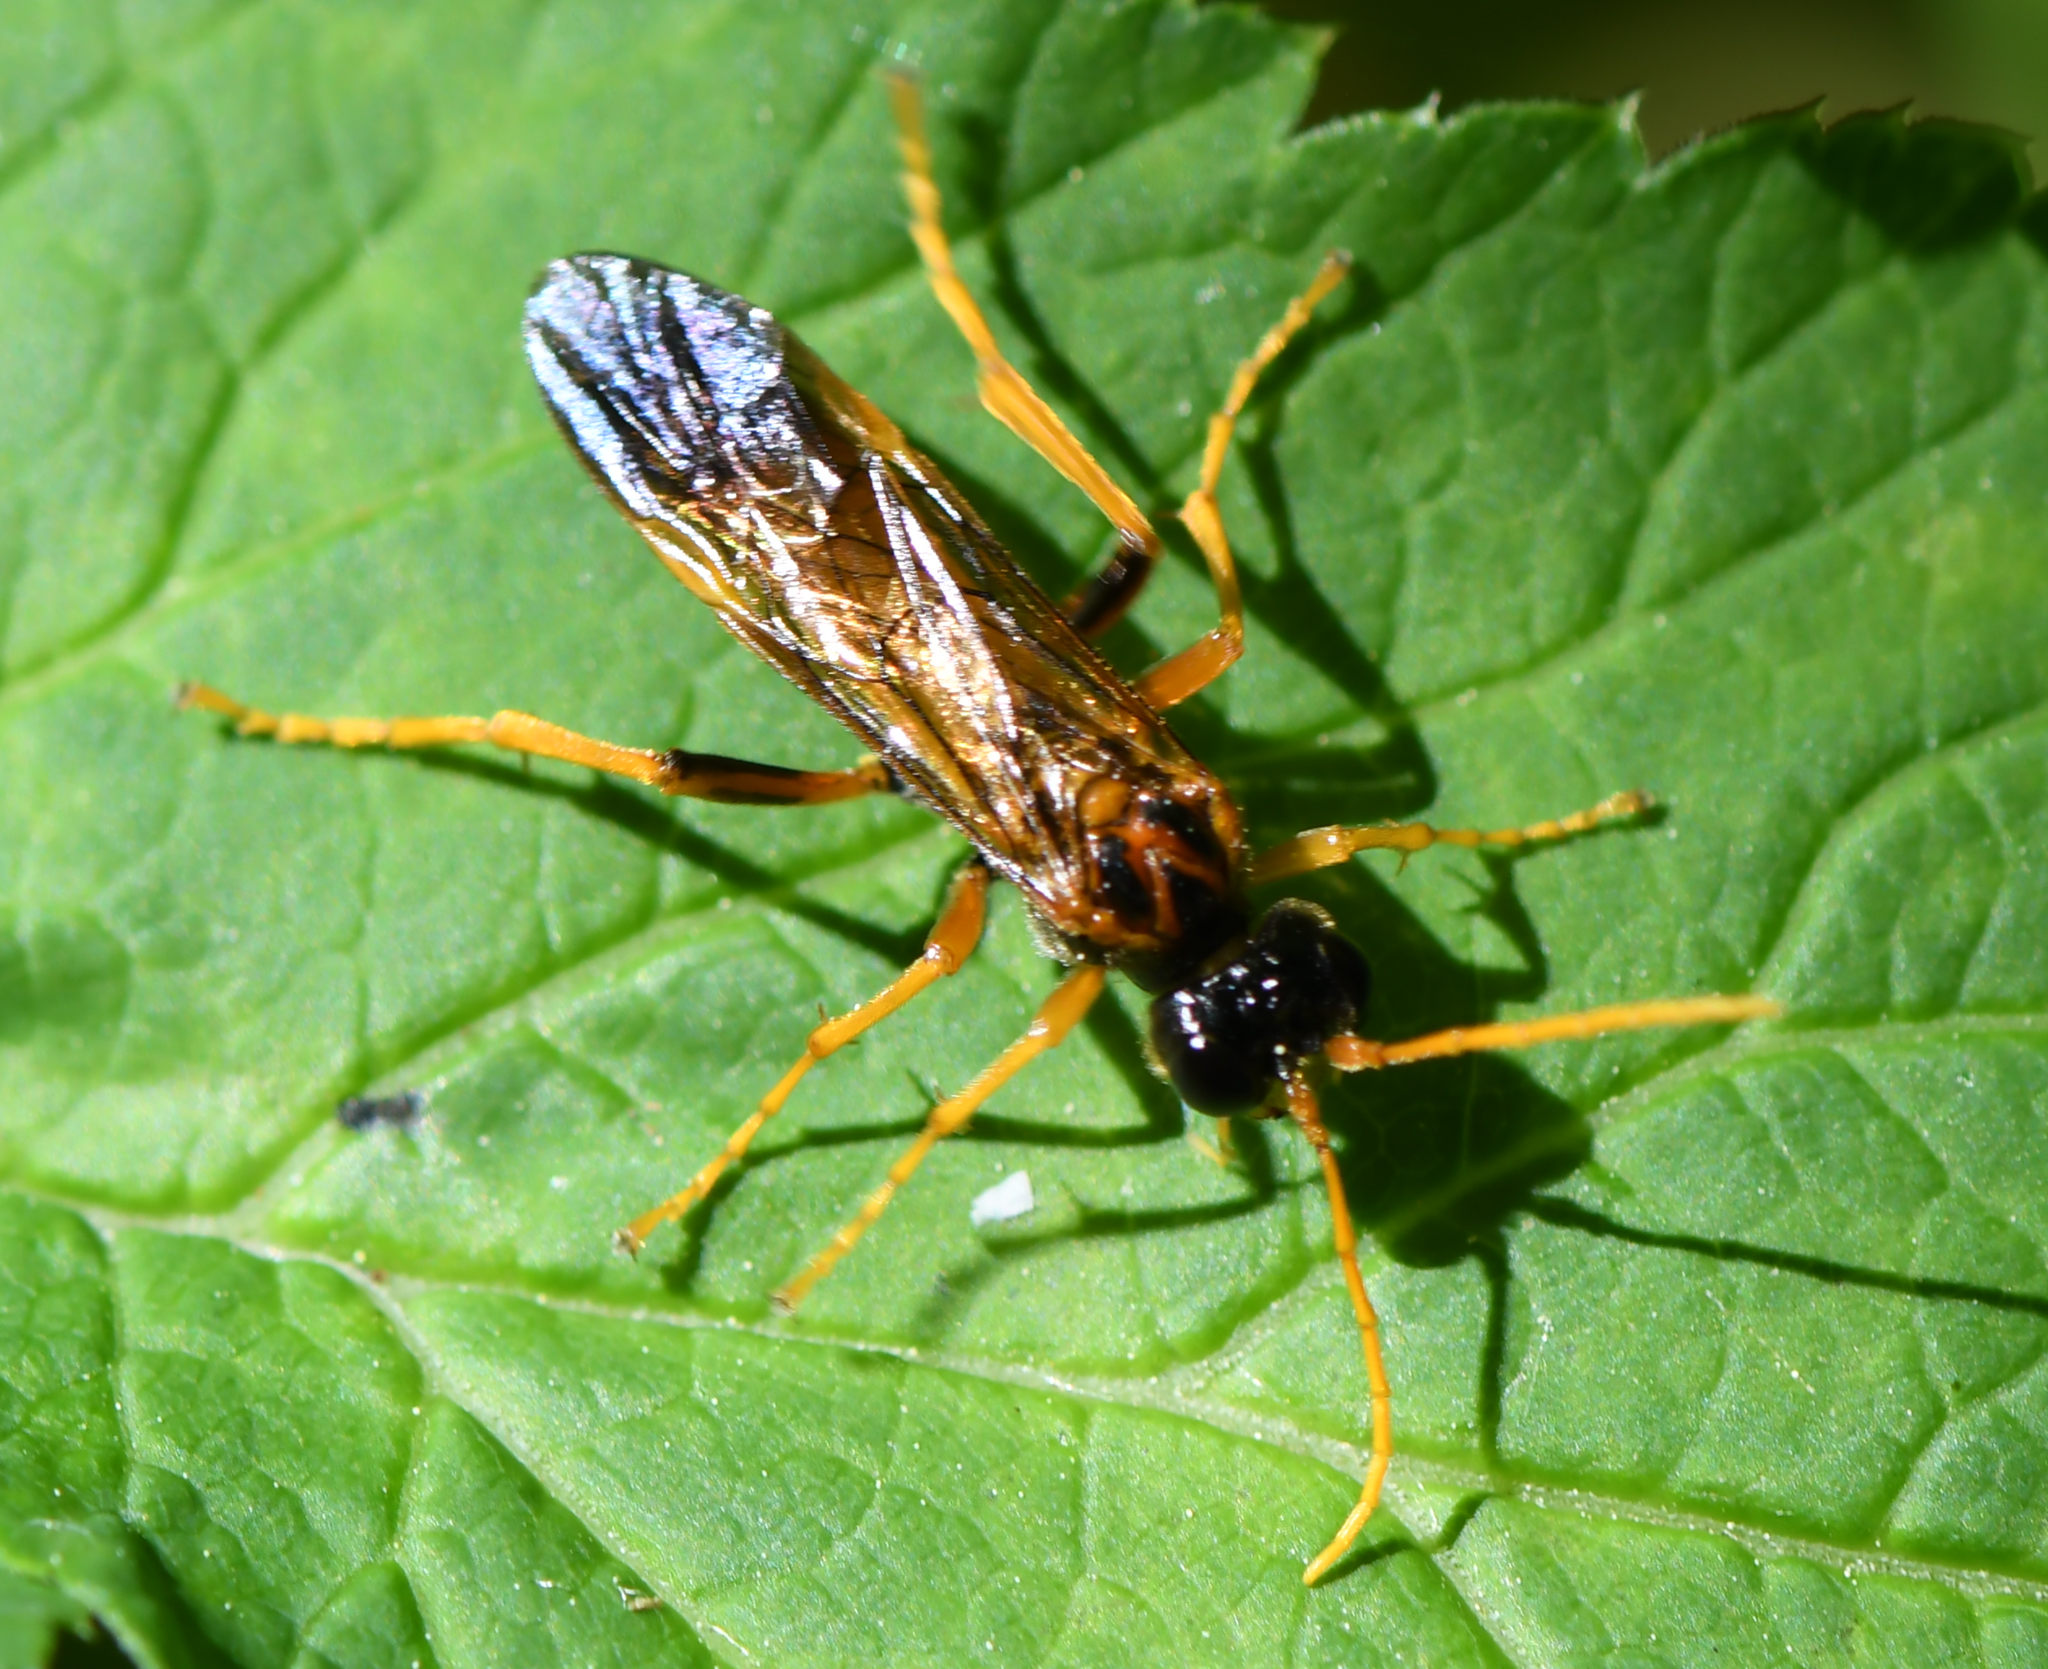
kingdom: Animalia
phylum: Arthropoda
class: Insecta
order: Hymenoptera
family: Tenthredinidae
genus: Tenthredo
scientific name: Tenthredo campestris
